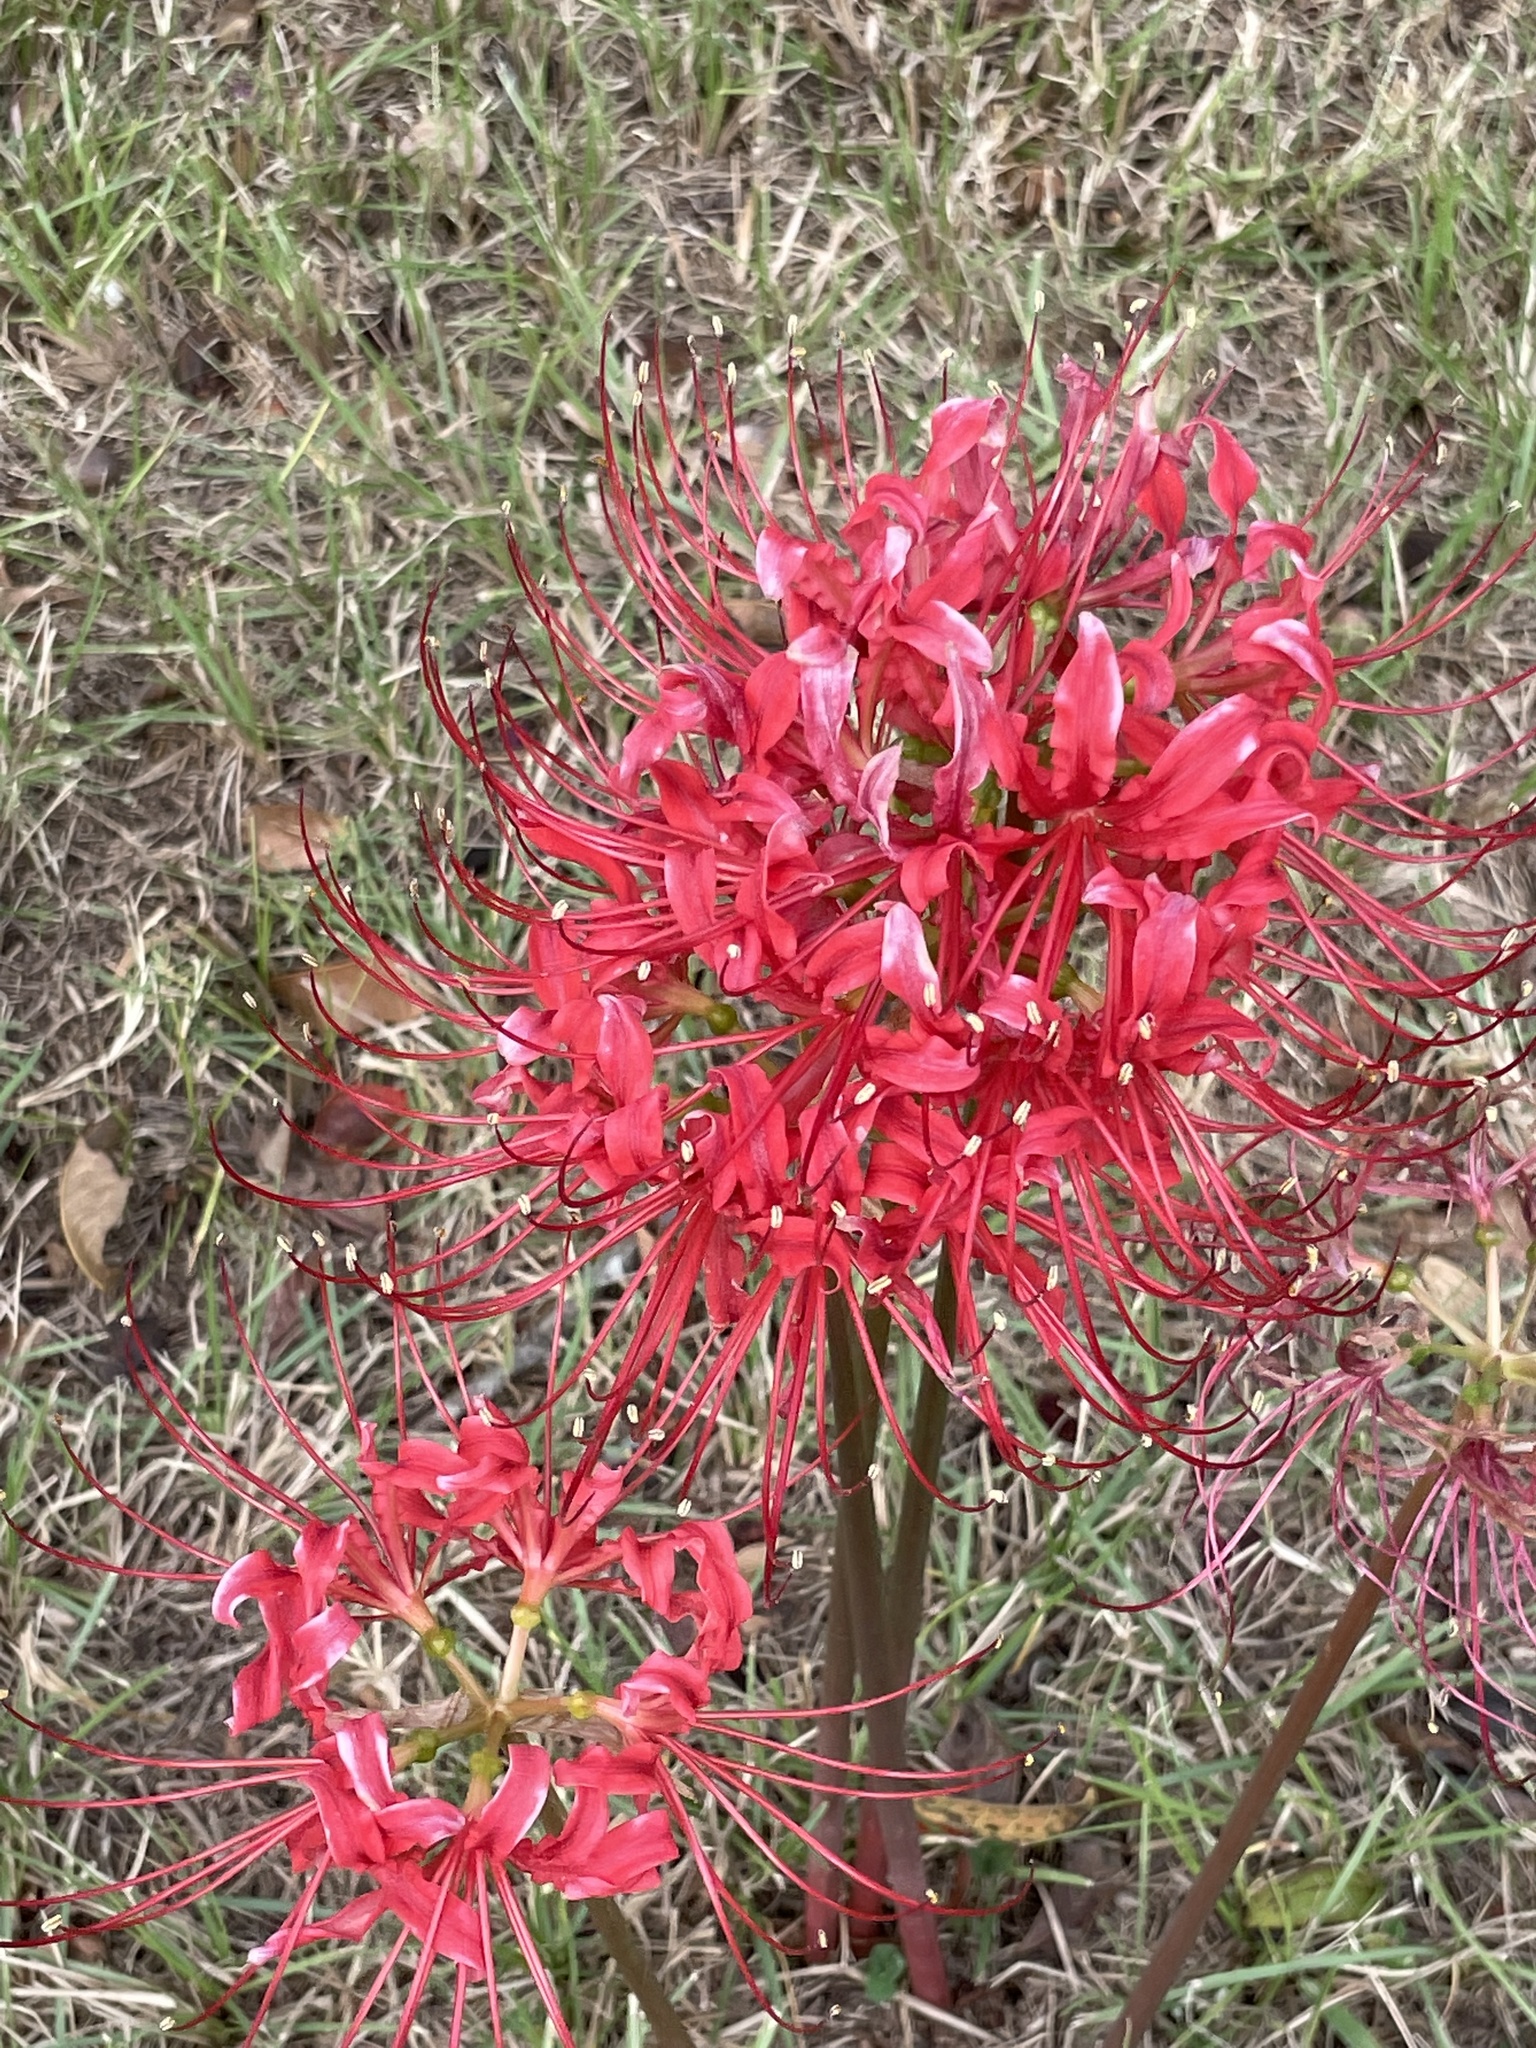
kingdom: Plantae
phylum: Tracheophyta
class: Liliopsida
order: Asparagales
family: Amaryllidaceae
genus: Lycoris
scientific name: Lycoris radiata
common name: Red spider lily
